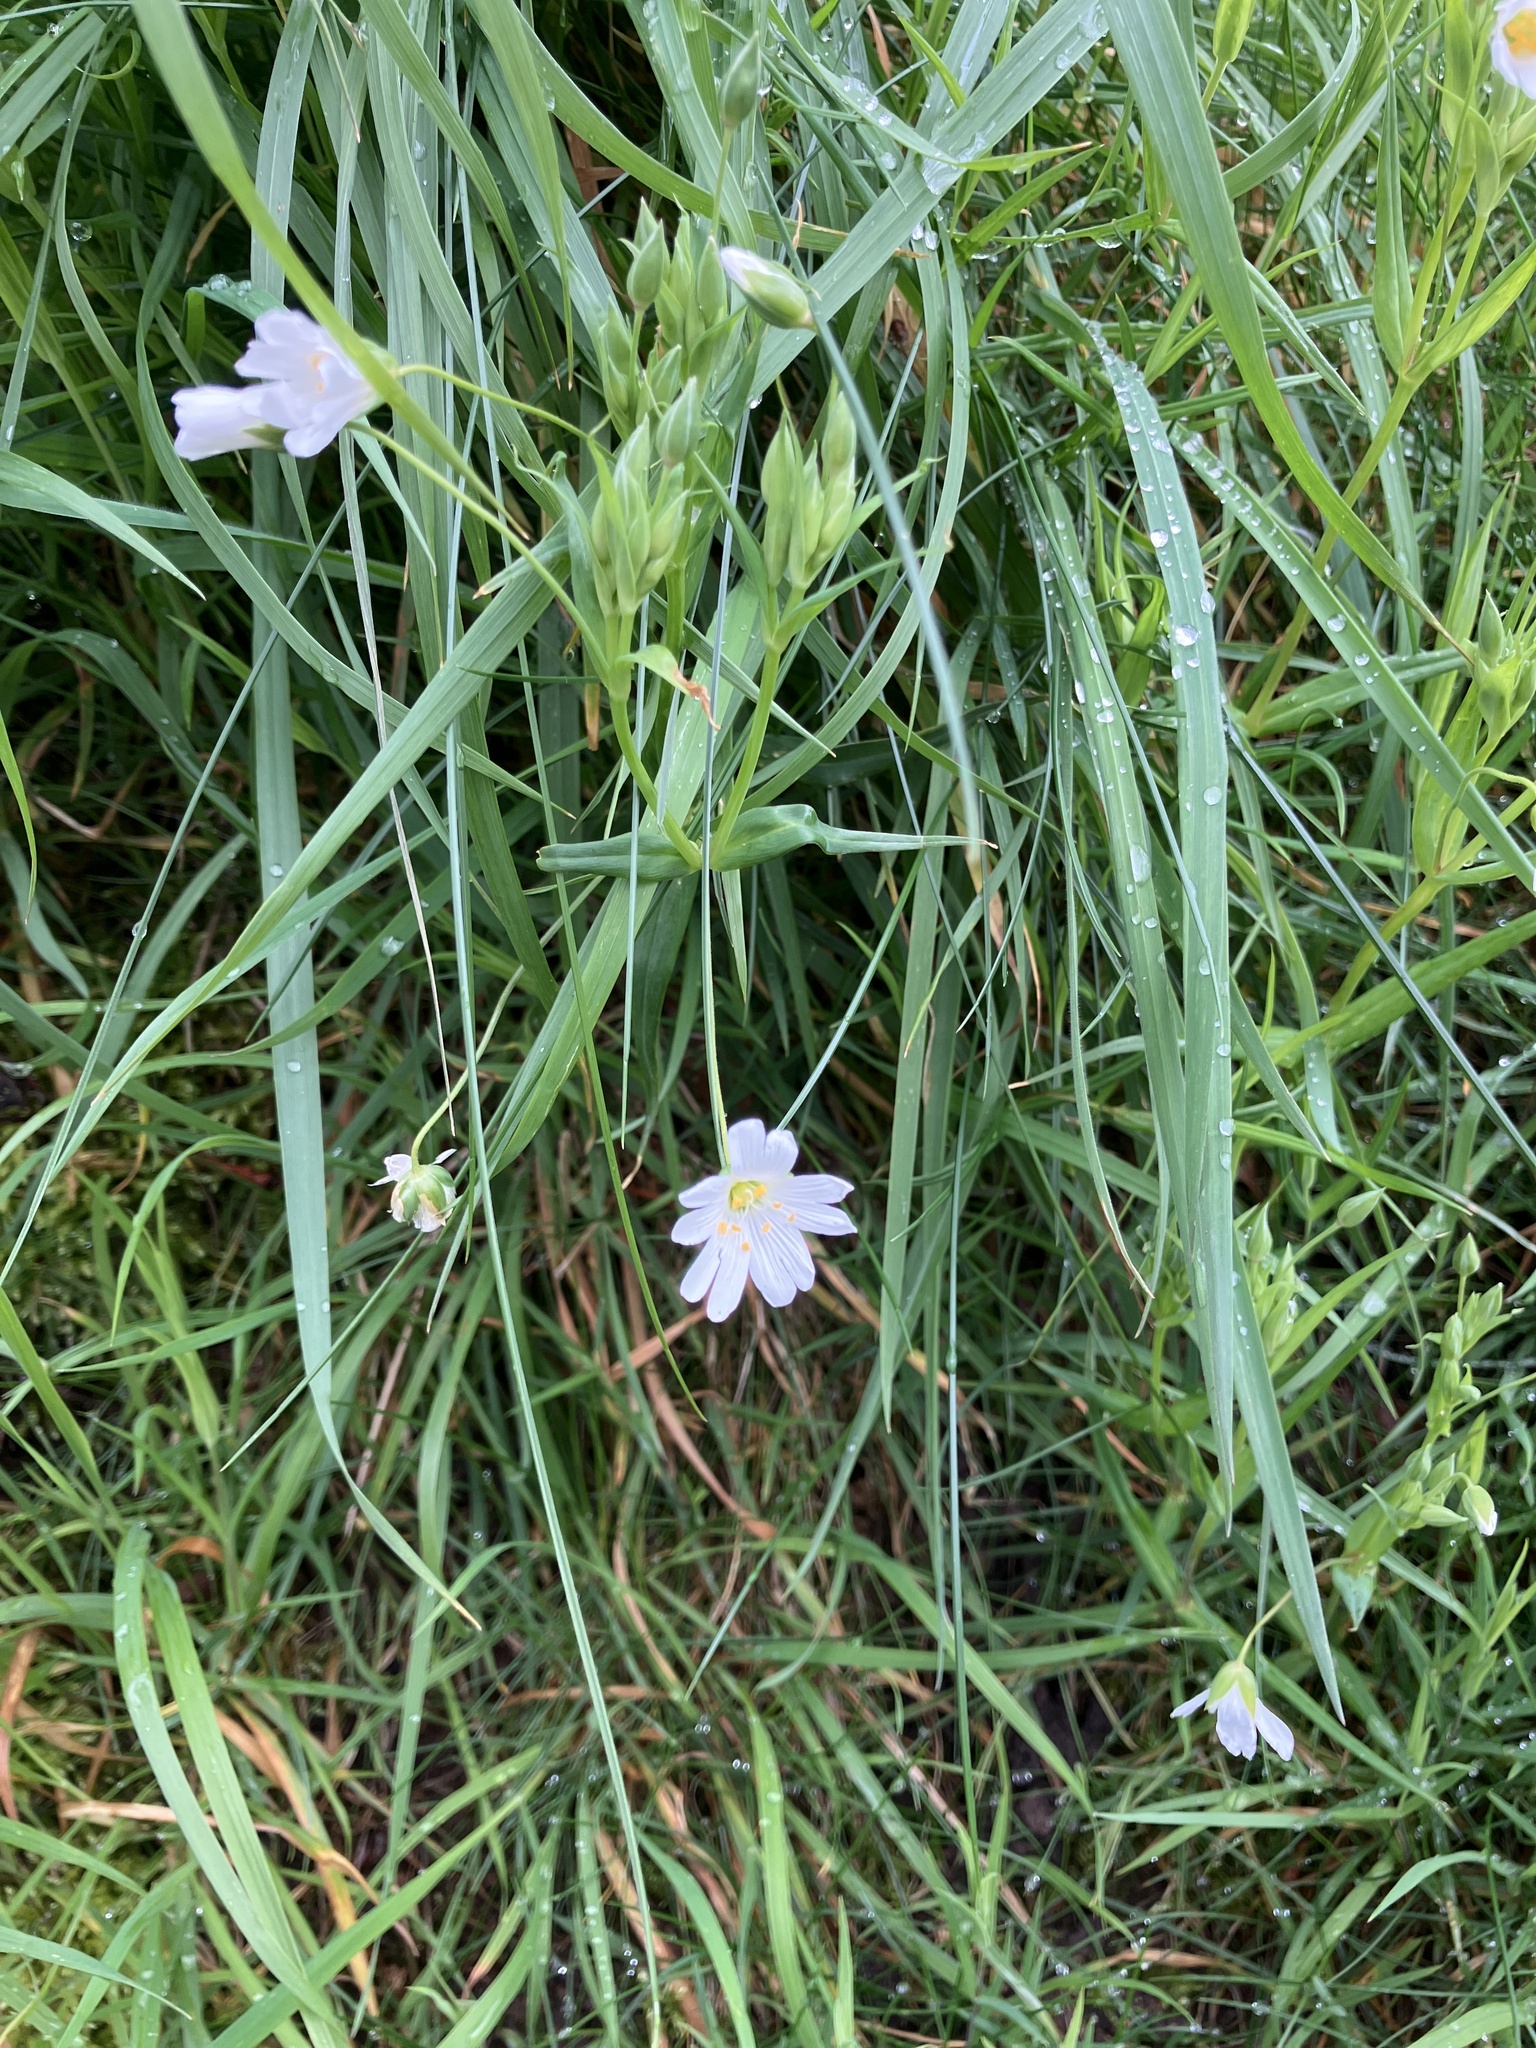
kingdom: Plantae
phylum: Tracheophyta
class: Magnoliopsida
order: Caryophyllales
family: Caryophyllaceae
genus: Rabelera
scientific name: Rabelera holostea
